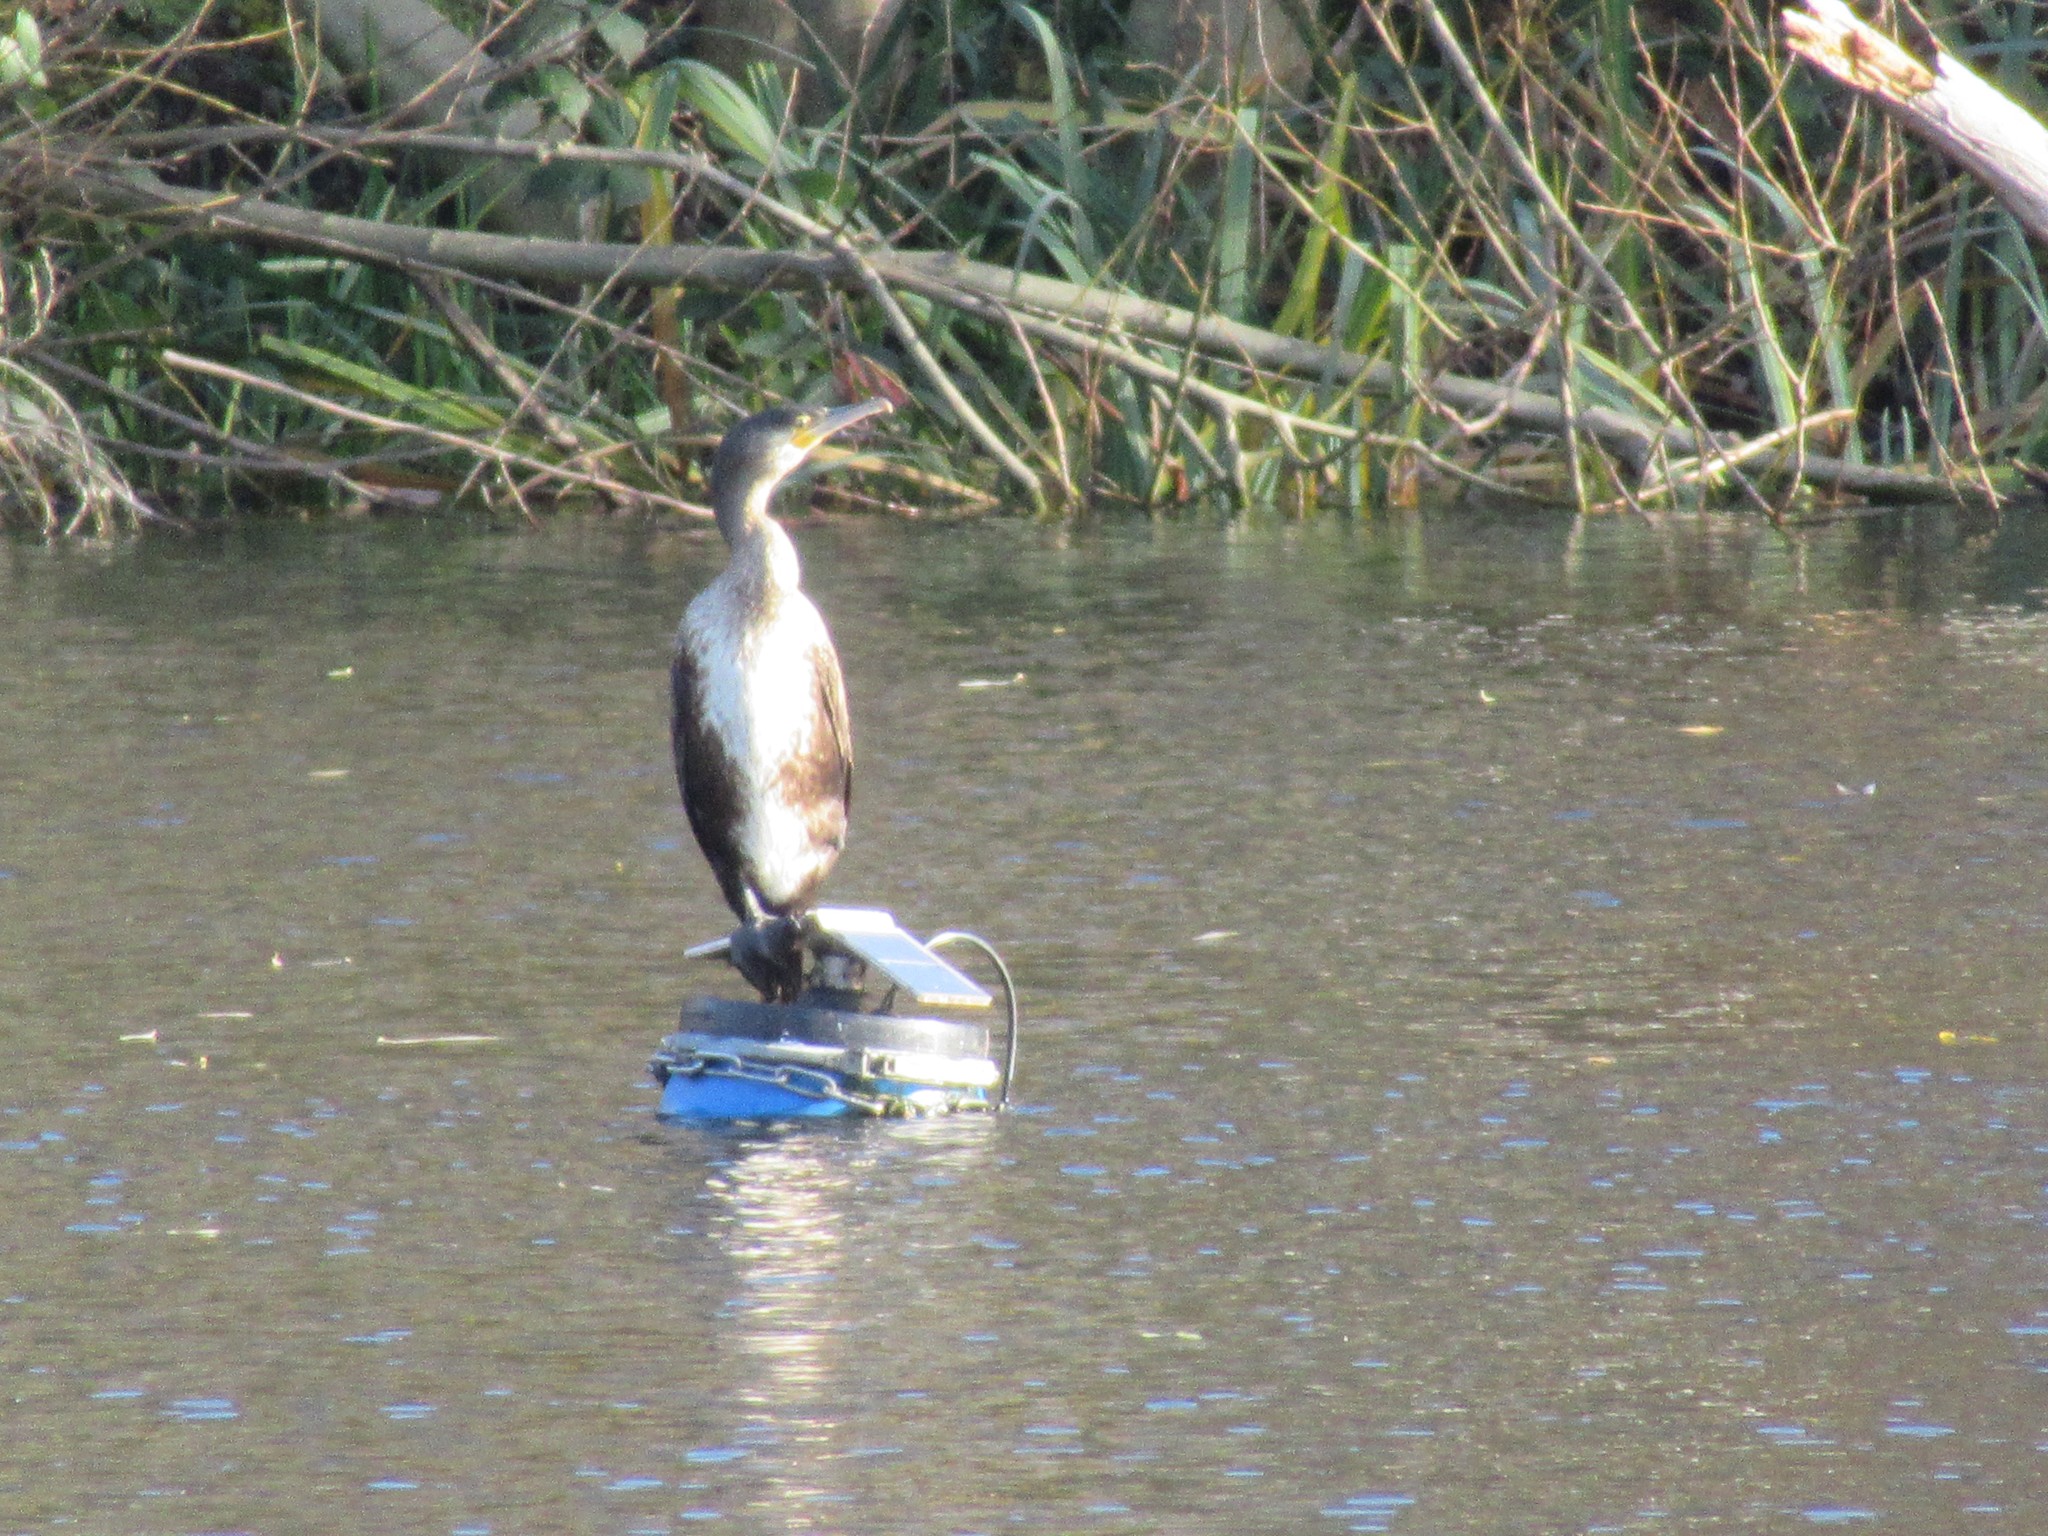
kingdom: Animalia
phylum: Chordata
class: Aves
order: Suliformes
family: Phalacrocoracidae
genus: Phalacrocorax
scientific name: Phalacrocorax carbo
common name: Great cormorant
